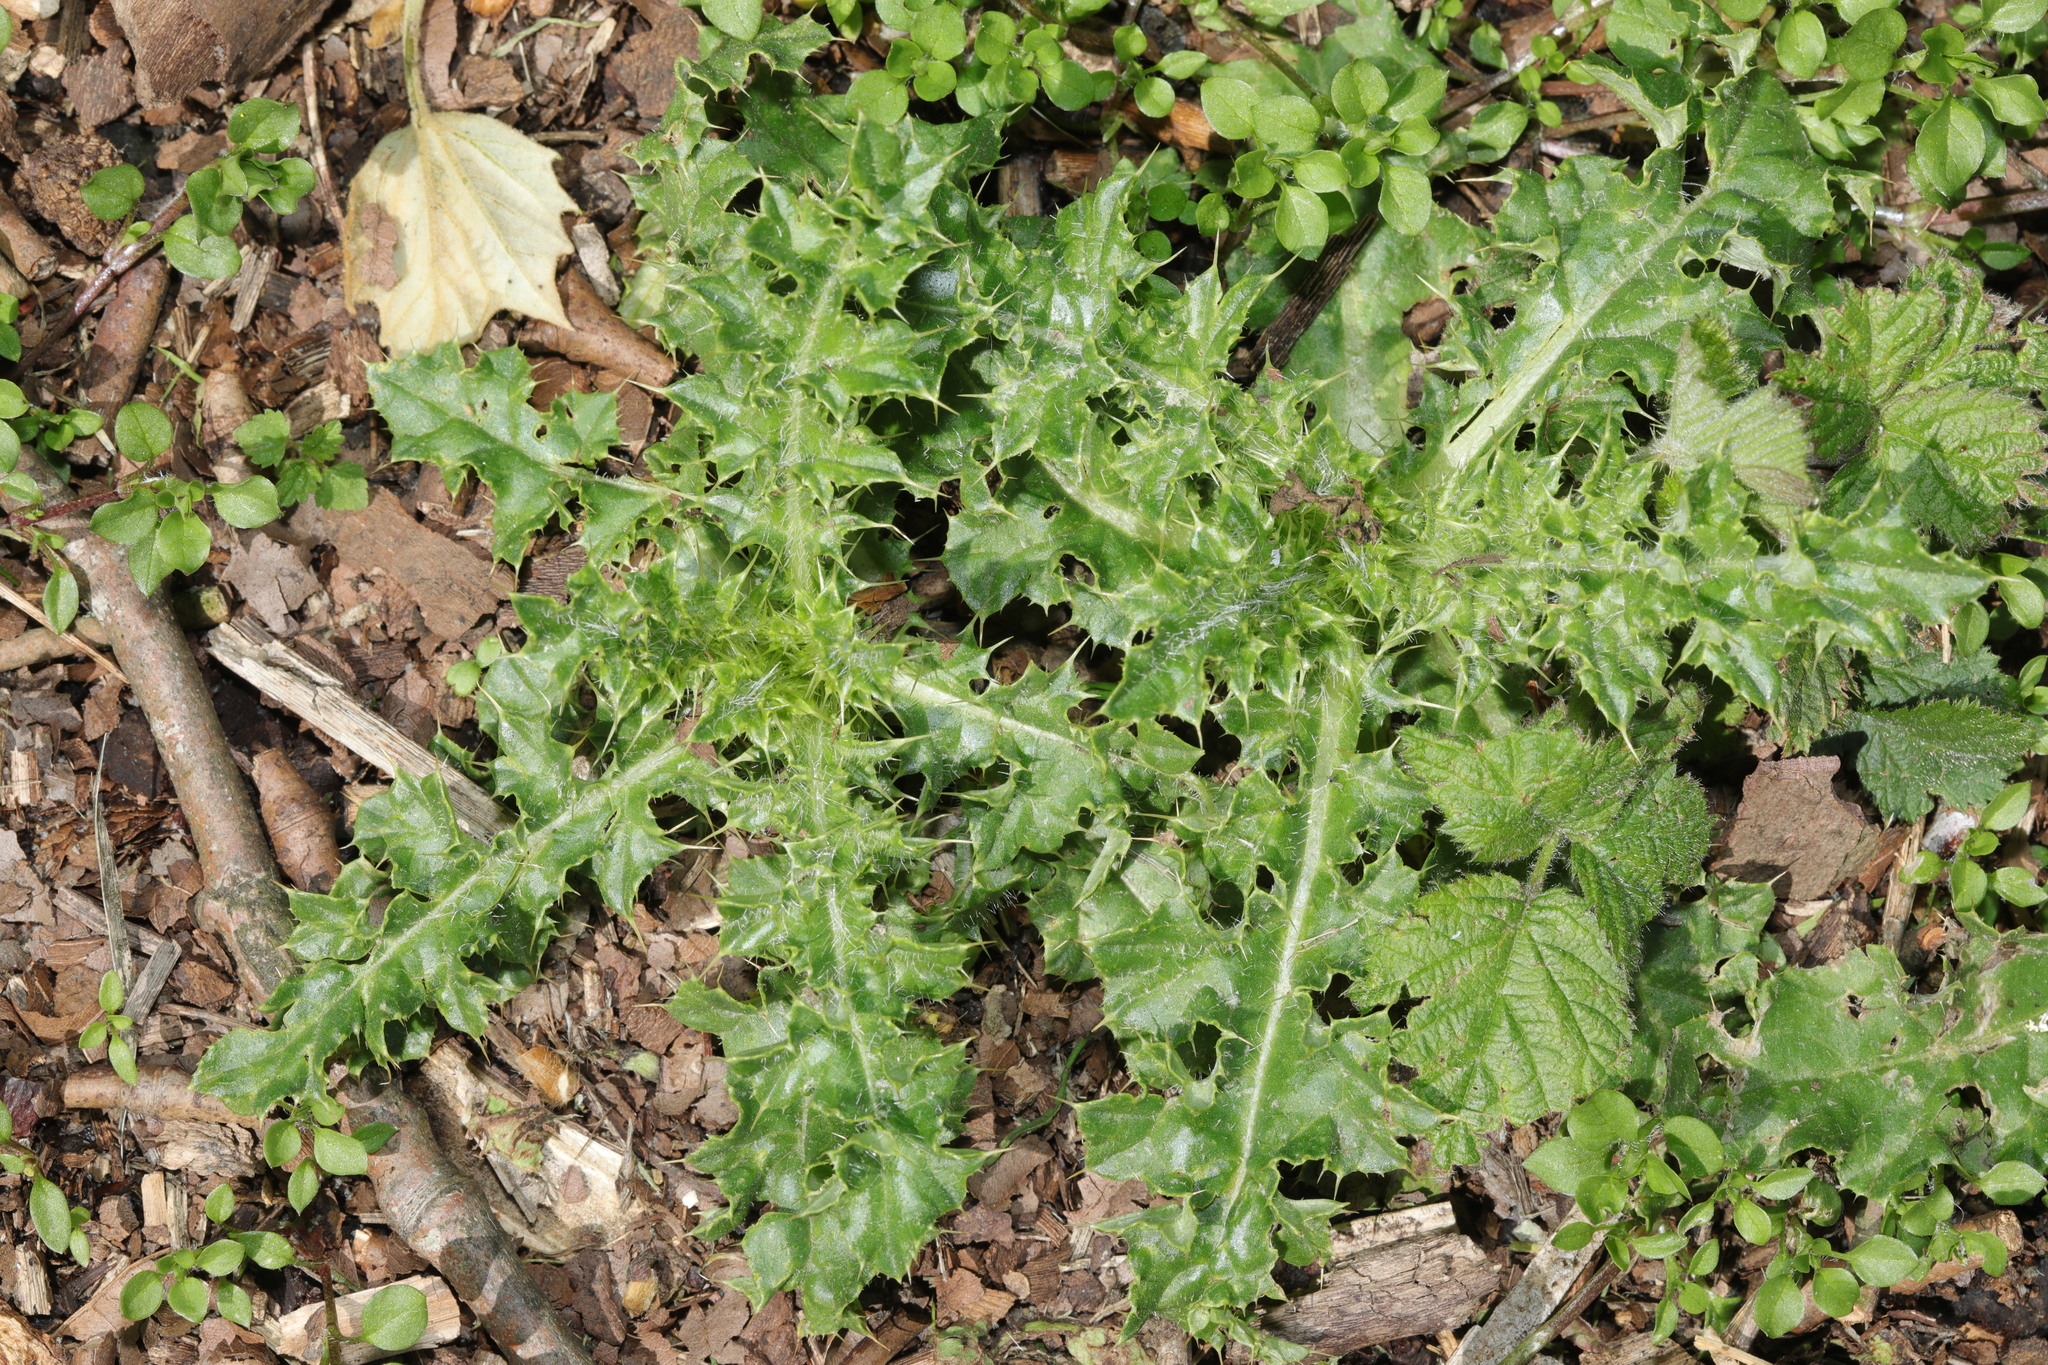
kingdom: Plantae
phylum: Tracheophyta
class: Magnoliopsida
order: Asterales
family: Asteraceae
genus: Cirsium
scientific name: Cirsium arvense
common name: Creeping thistle
